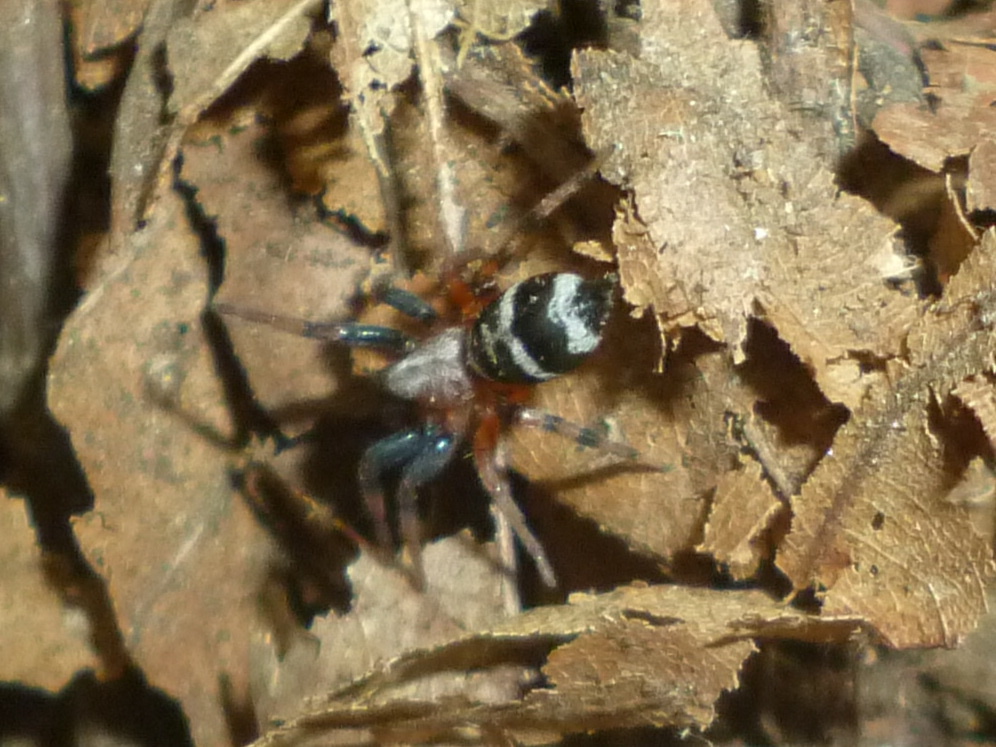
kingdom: Animalia
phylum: Arthropoda
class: Arachnida
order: Araneae
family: Gnaphosidae
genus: Sergiolus
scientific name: Sergiolus capulatus
